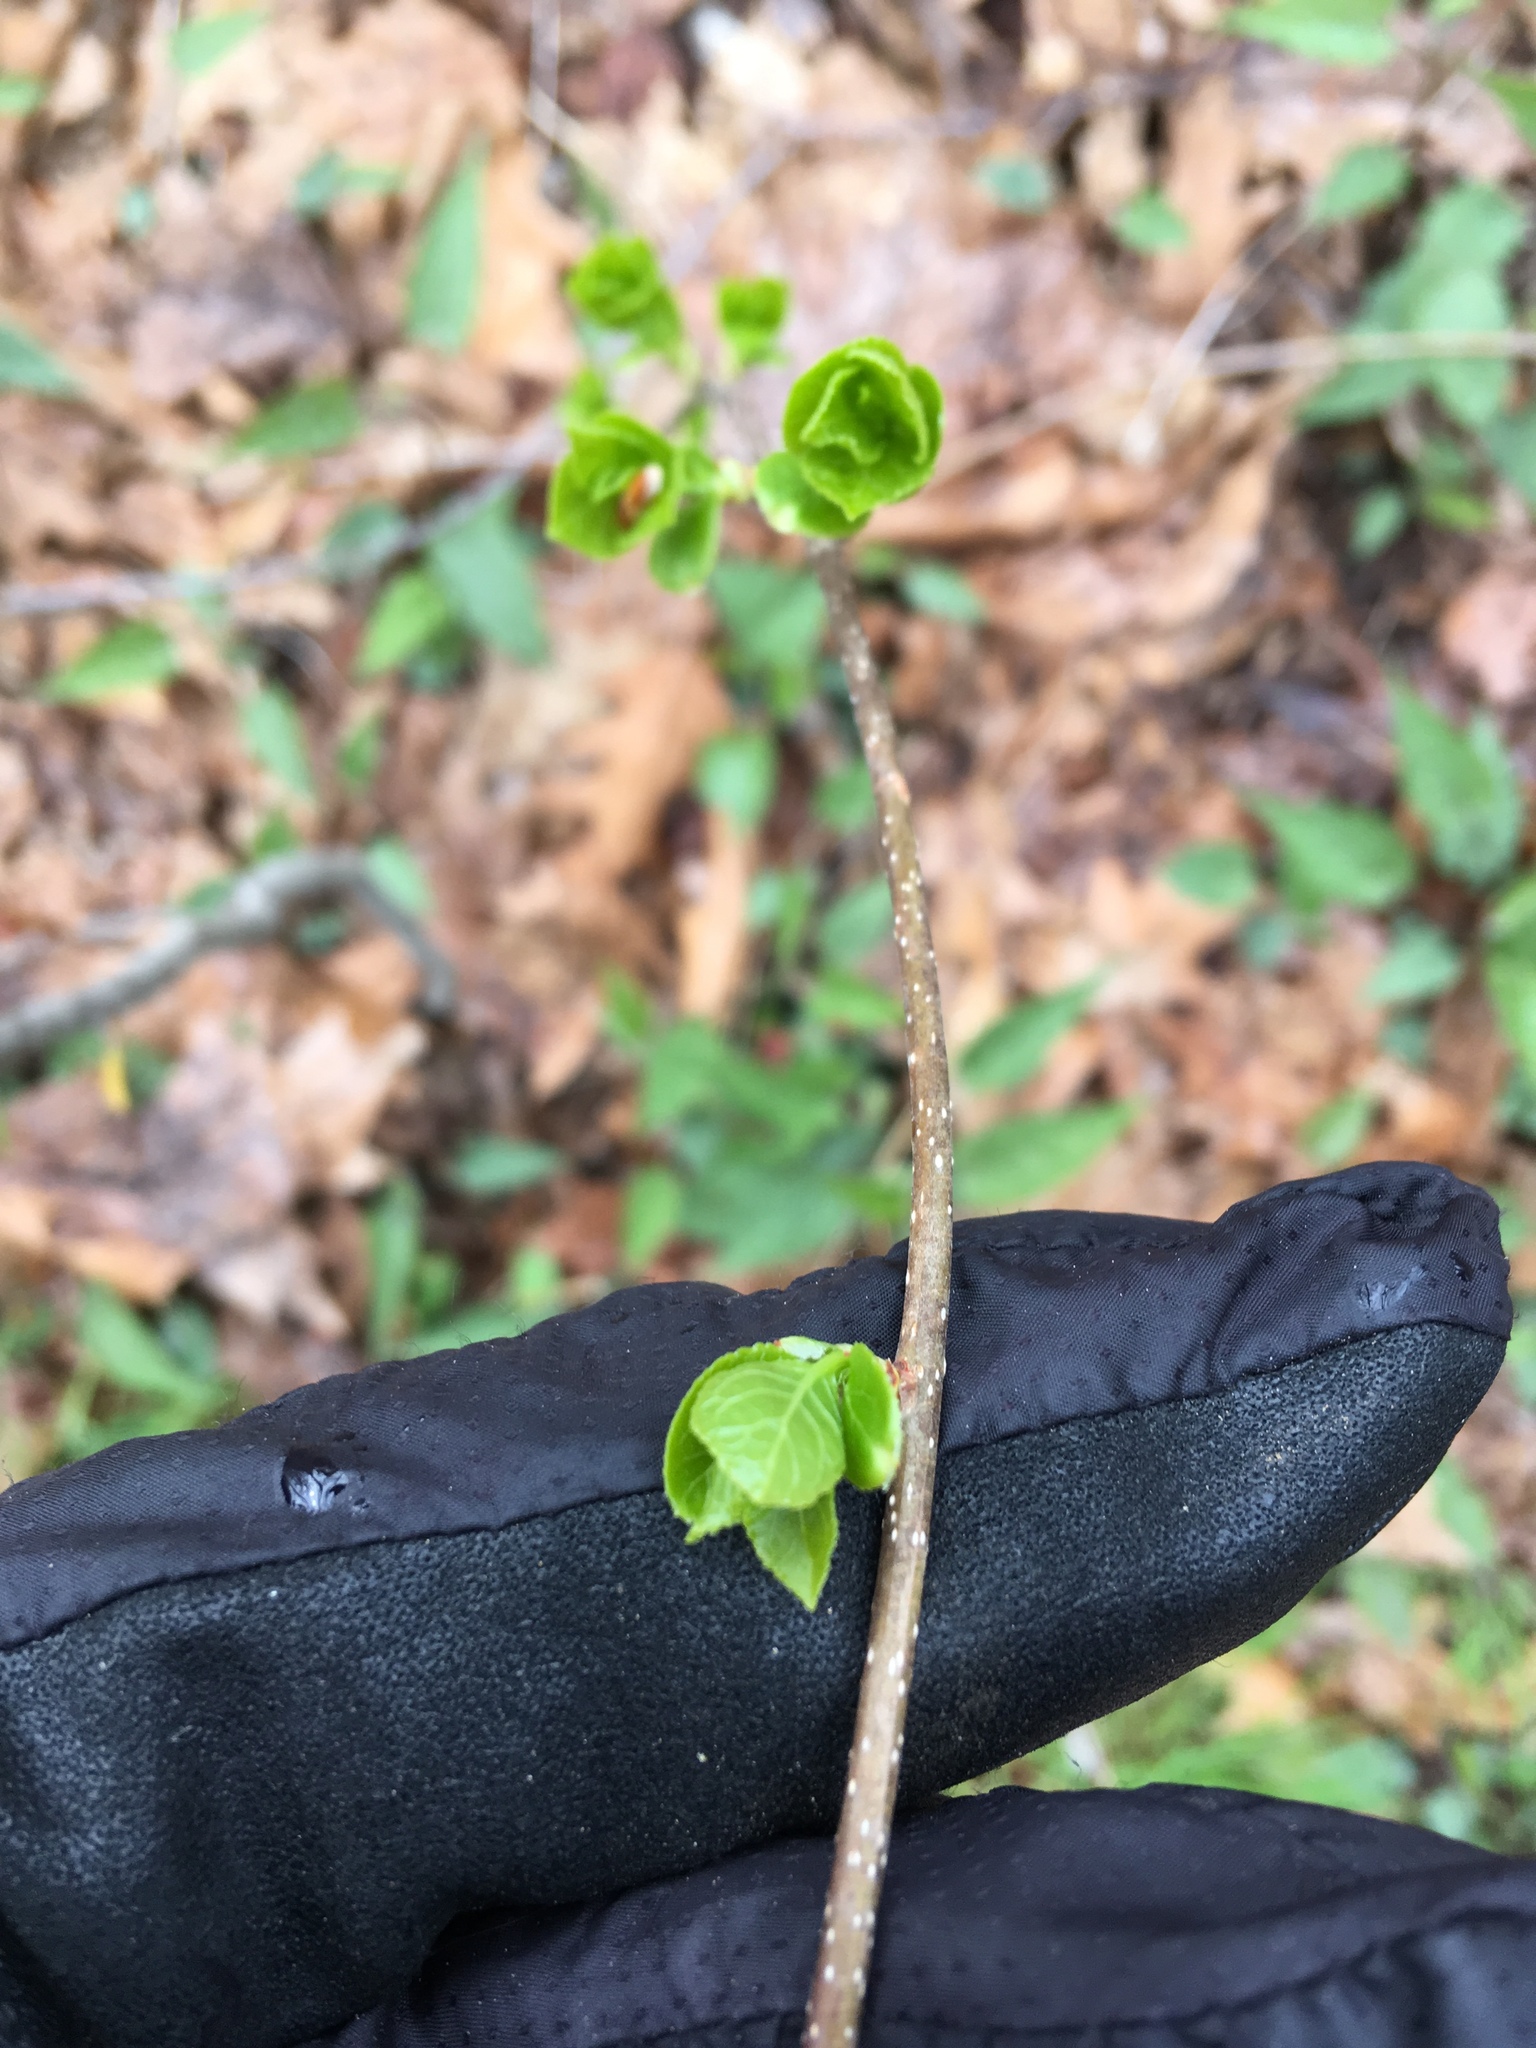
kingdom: Plantae
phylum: Tracheophyta
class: Magnoliopsida
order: Celastrales
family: Celastraceae
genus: Celastrus
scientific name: Celastrus orbiculatus
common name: Oriental bittersweet
